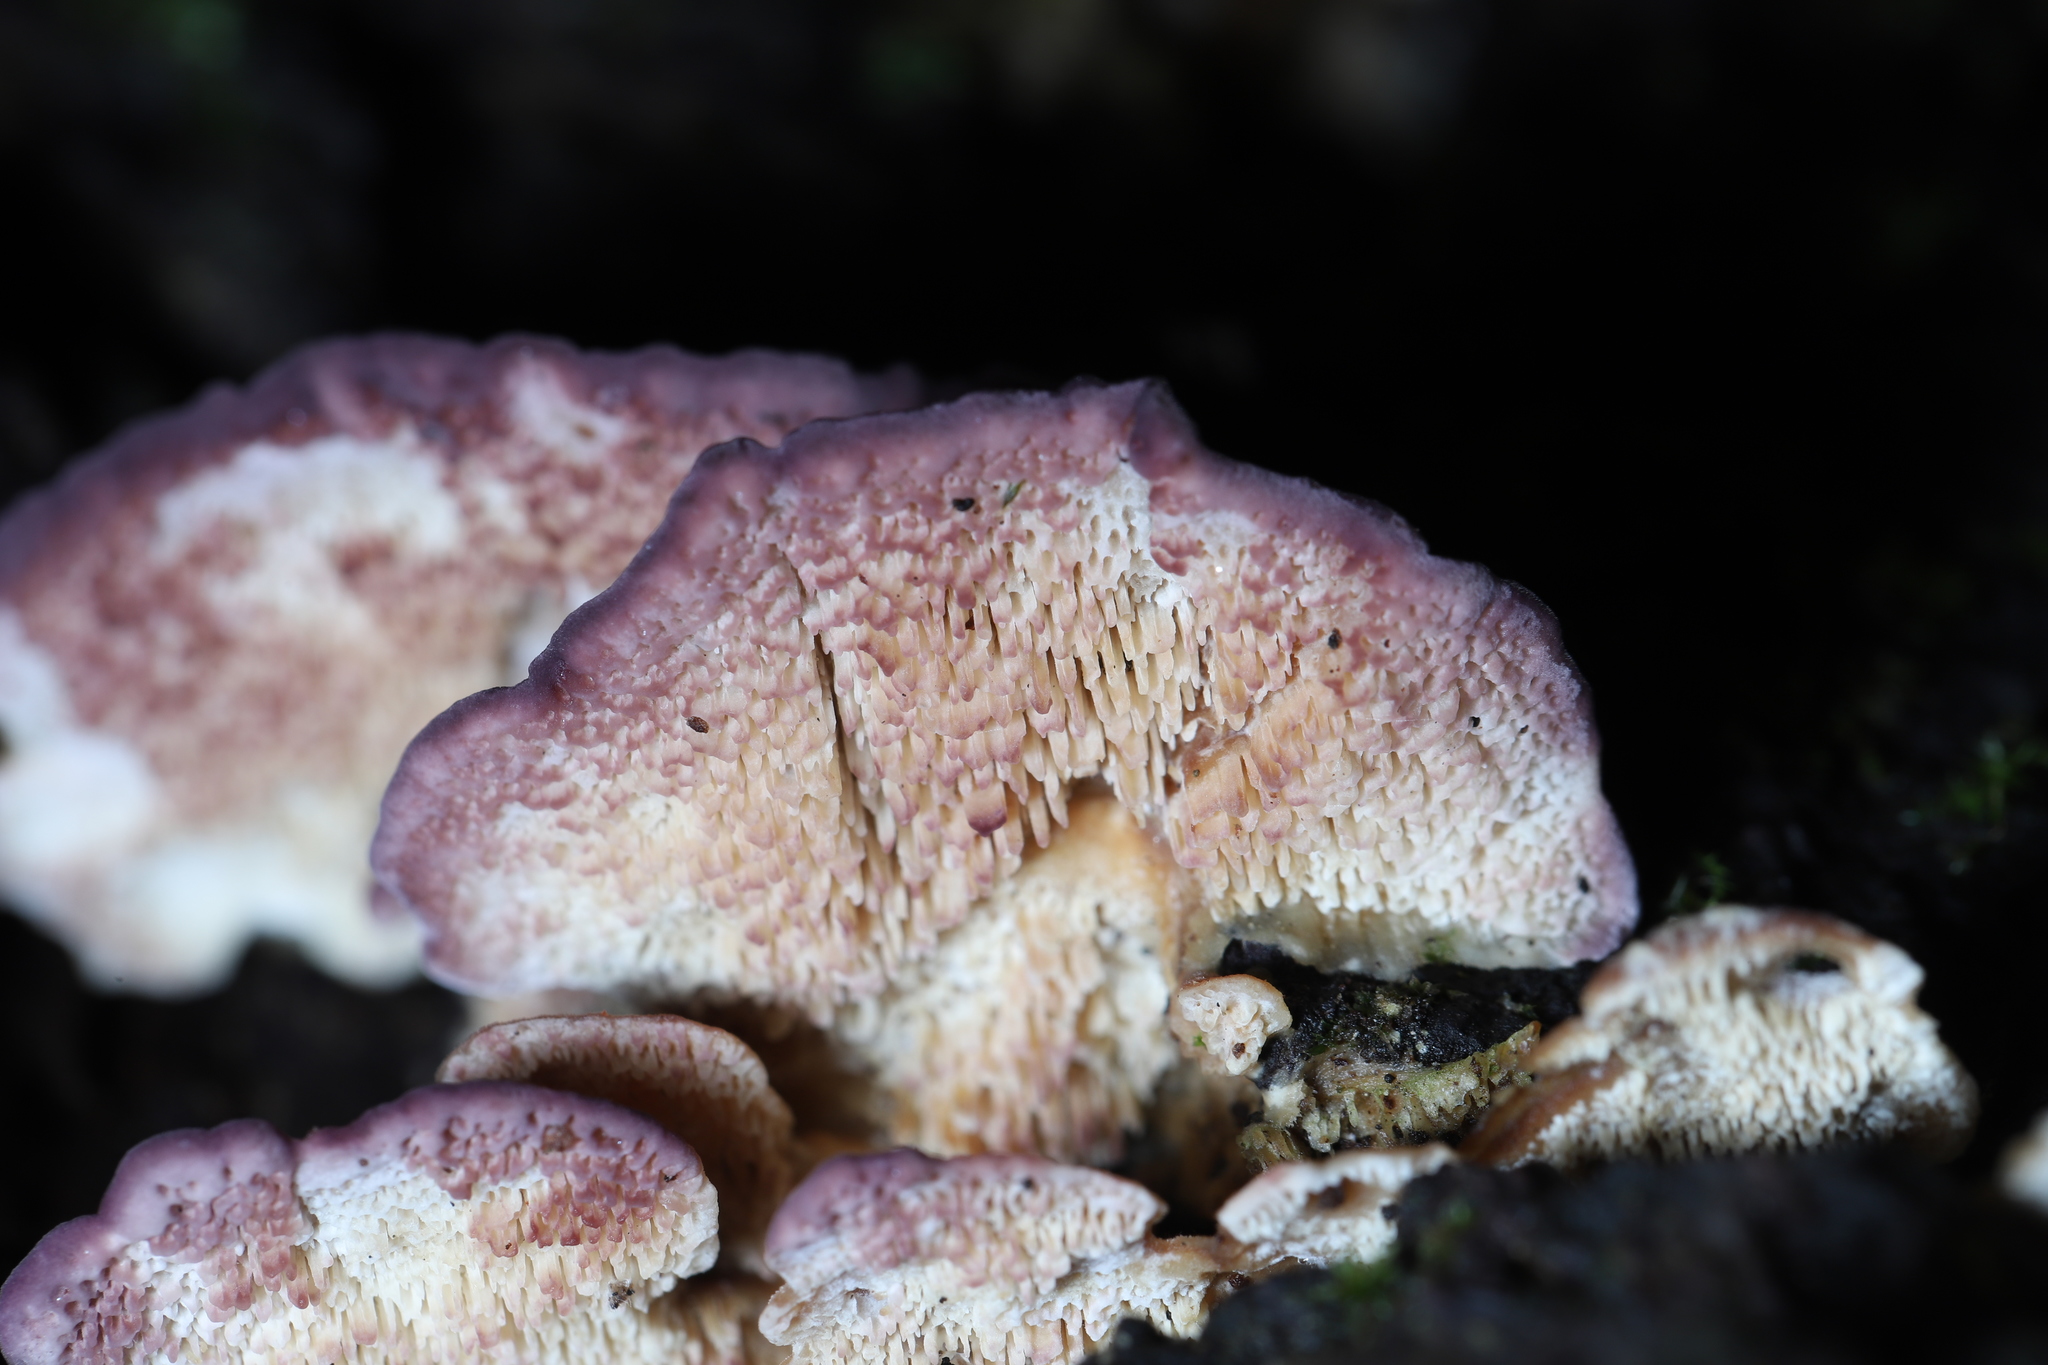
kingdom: Fungi
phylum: Basidiomycota
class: Agaricomycetes
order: Hymenochaetales
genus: Trichaptum
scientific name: Trichaptum biforme
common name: Violet-toothed polypore
